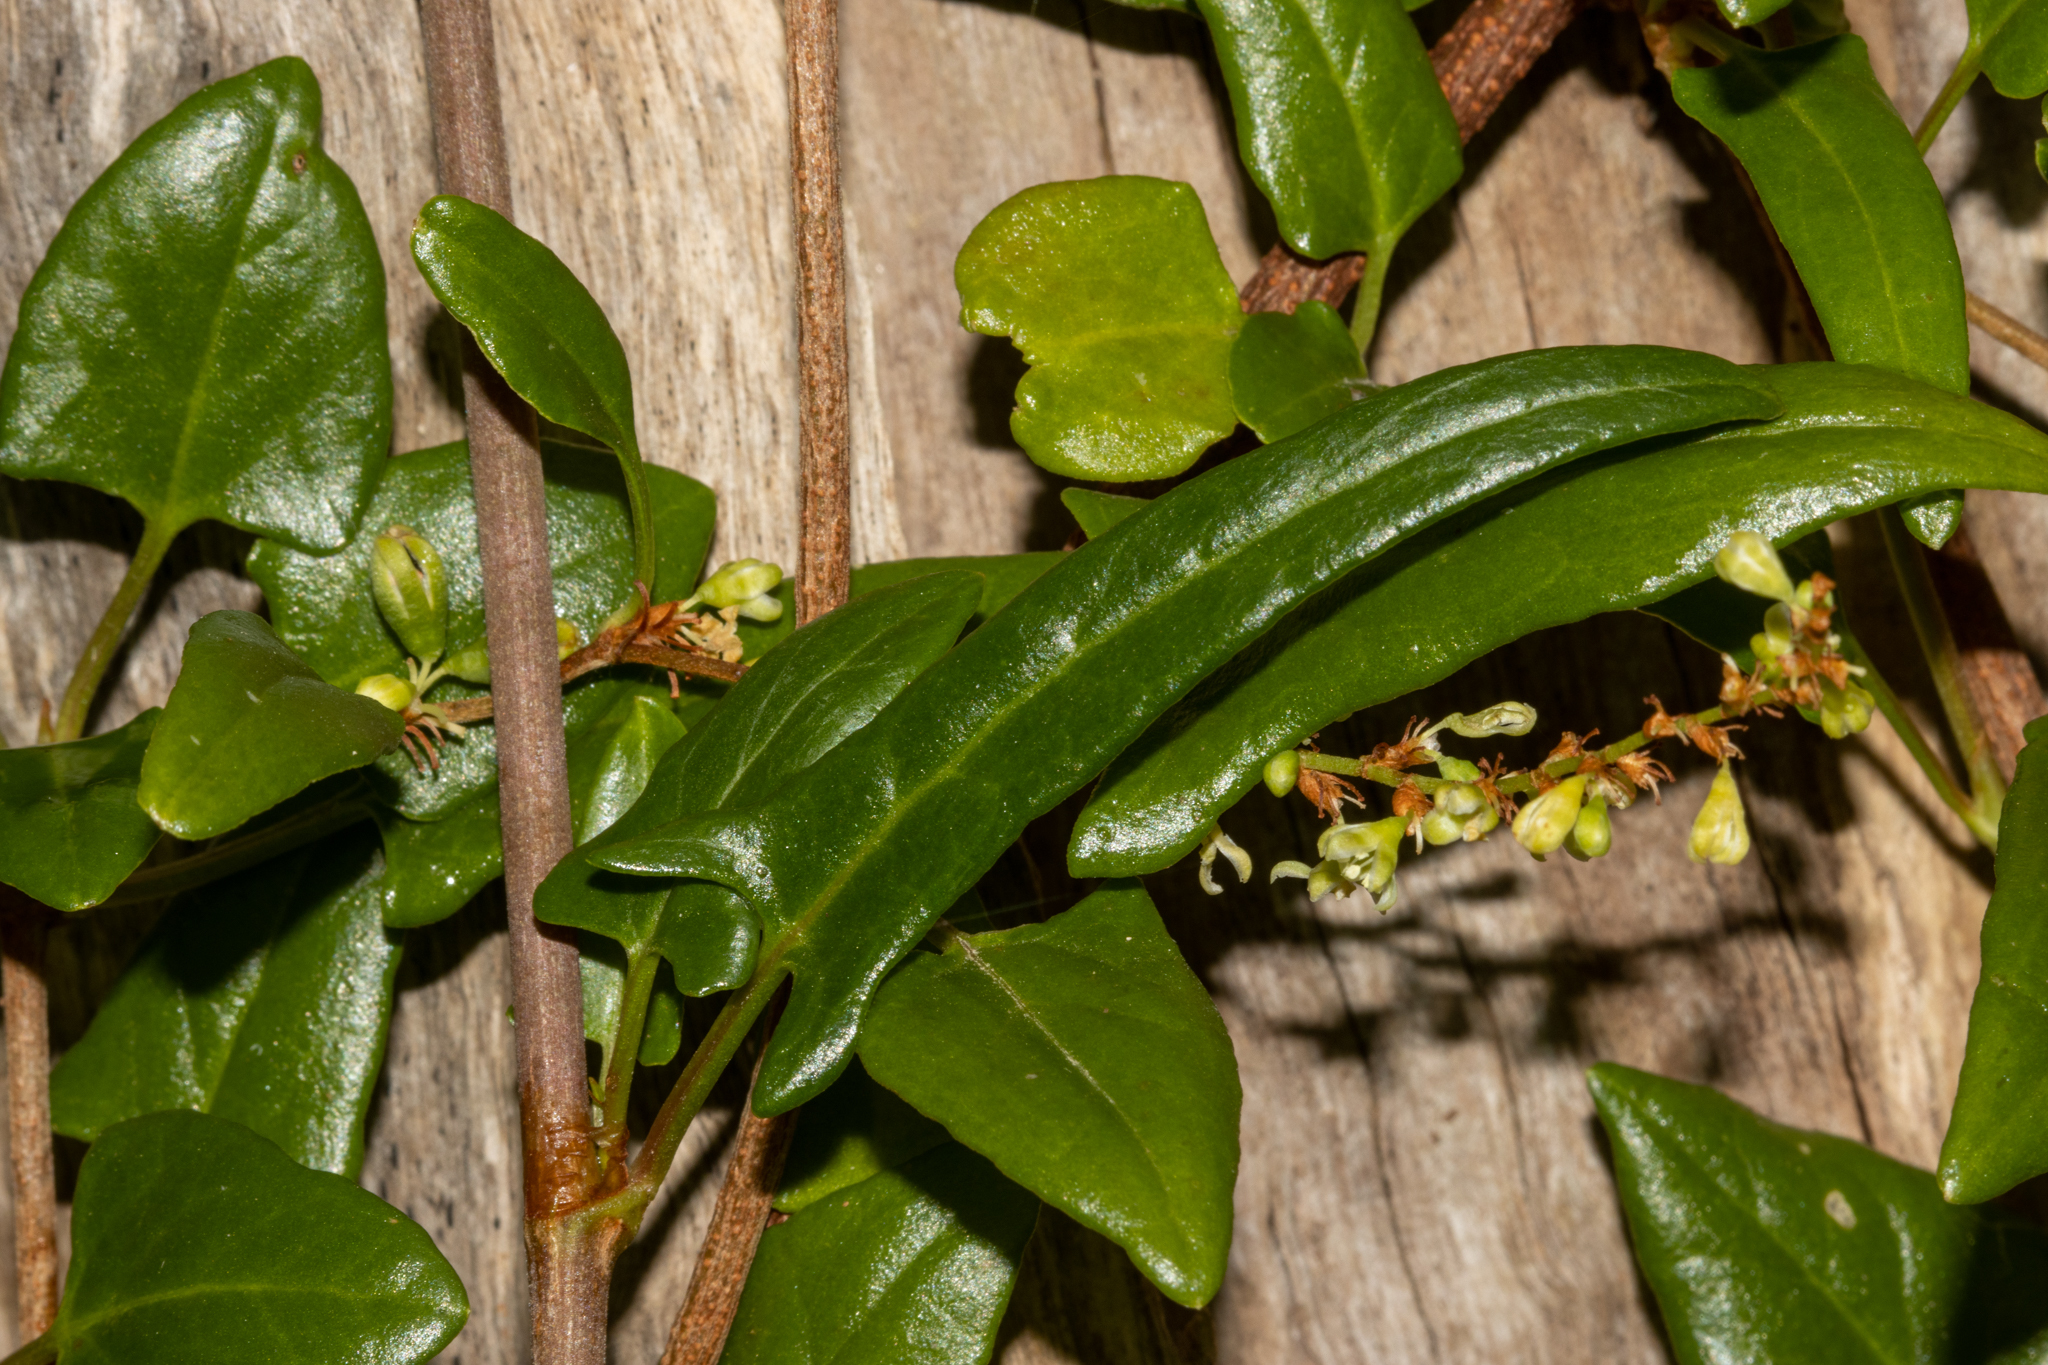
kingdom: Plantae
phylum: Tracheophyta
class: Magnoliopsida
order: Caryophyllales
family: Polygonaceae
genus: Muehlenbeckia
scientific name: Muehlenbeckia gunnii
